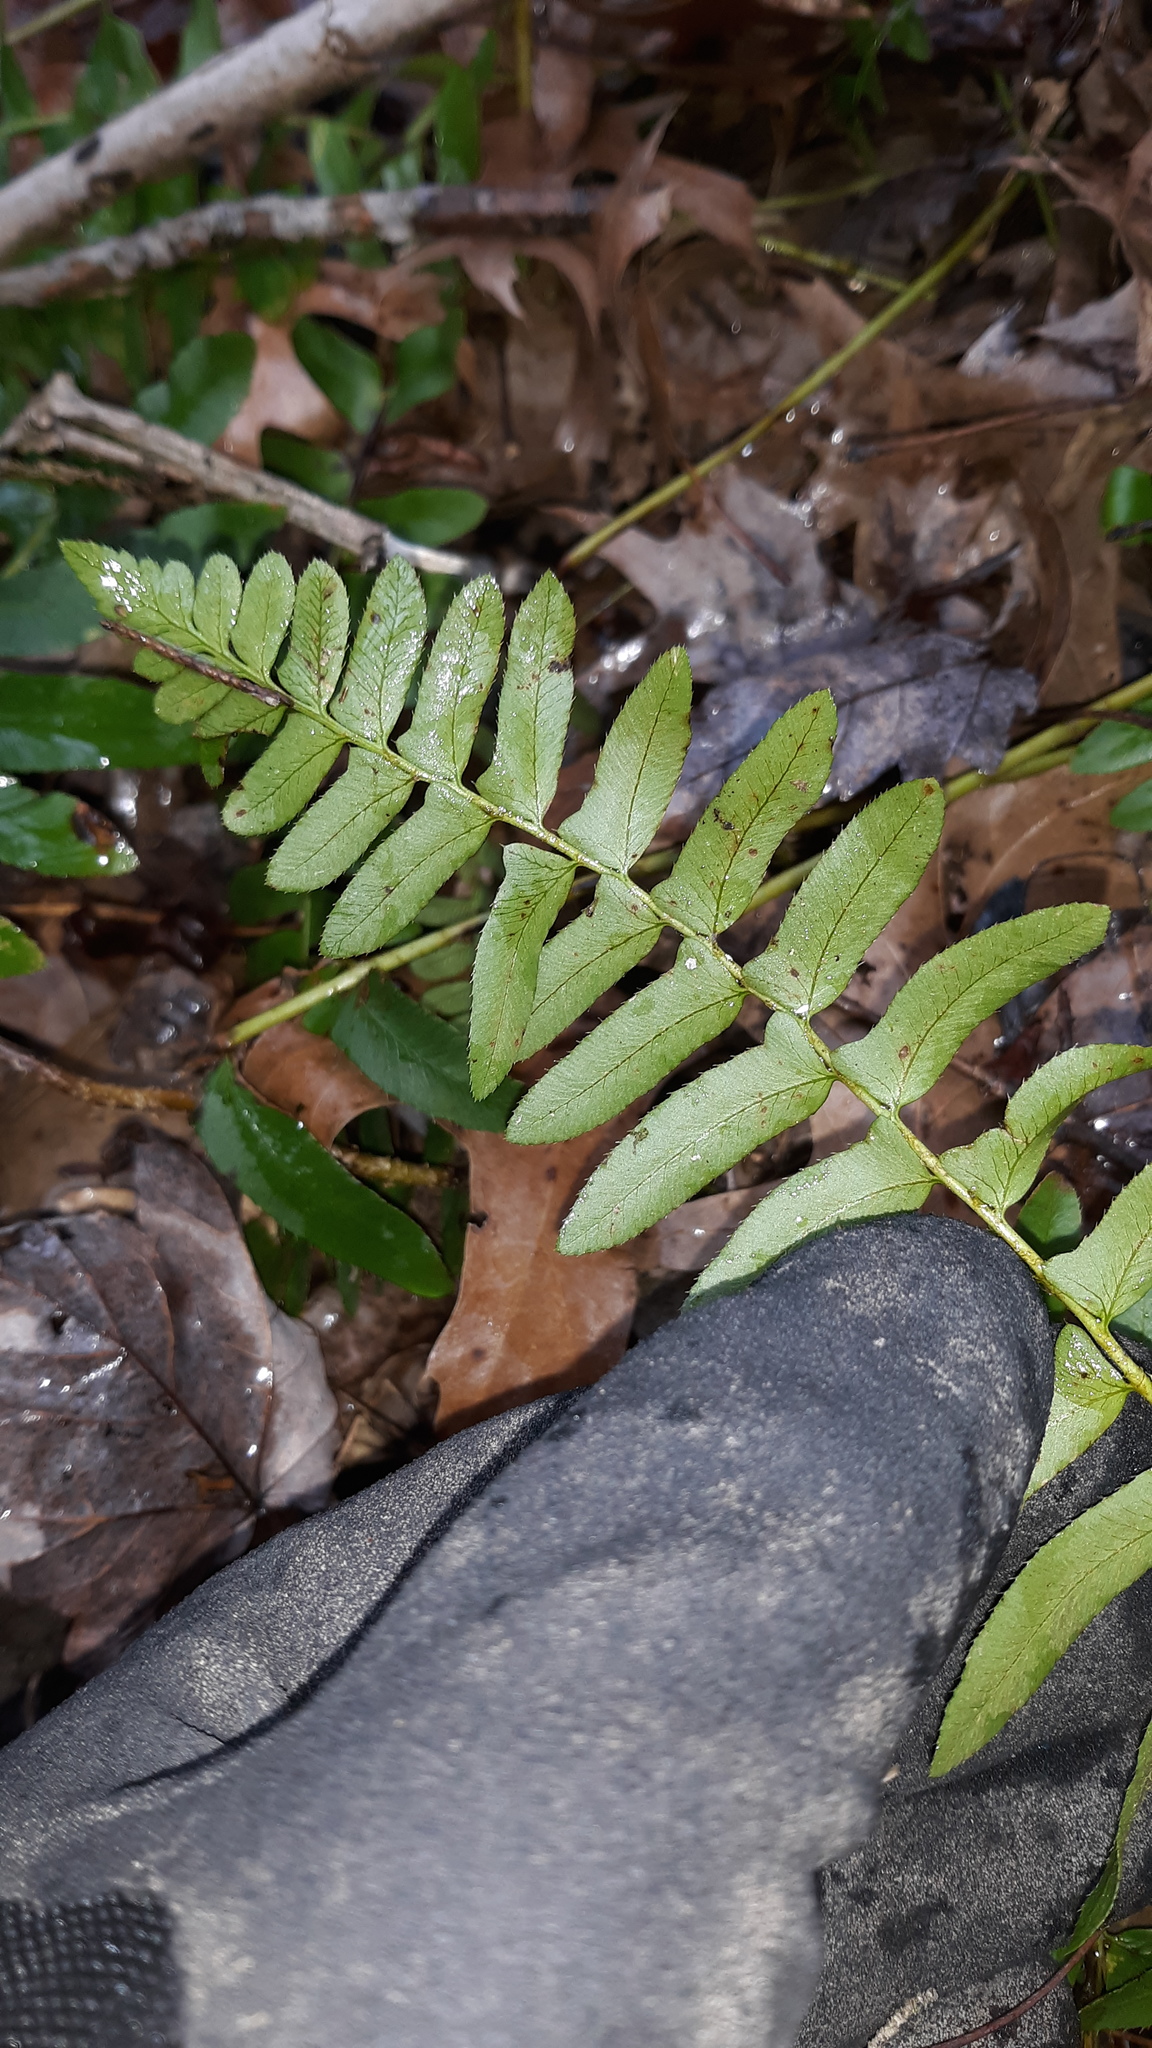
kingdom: Plantae
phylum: Tracheophyta
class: Polypodiopsida
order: Polypodiales
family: Dryopteridaceae
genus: Polystichum
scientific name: Polystichum acrostichoides
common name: Christmas fern
